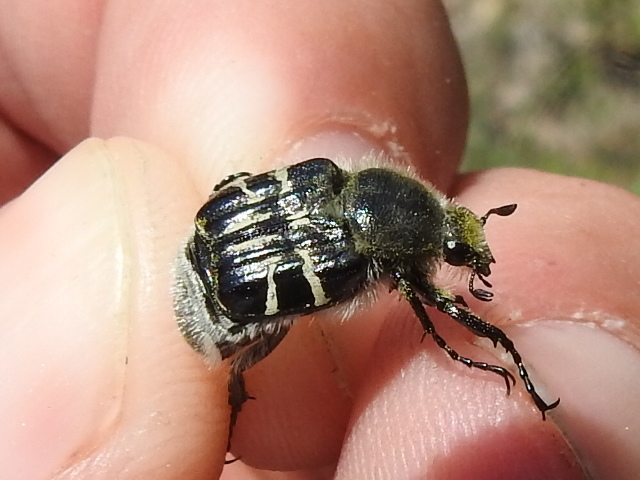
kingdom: Animalia
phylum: Arthropoda
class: Insecta
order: Coleoptera
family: Scarabaeidae
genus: Trichiotinus
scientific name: Trichiotinus texanus
